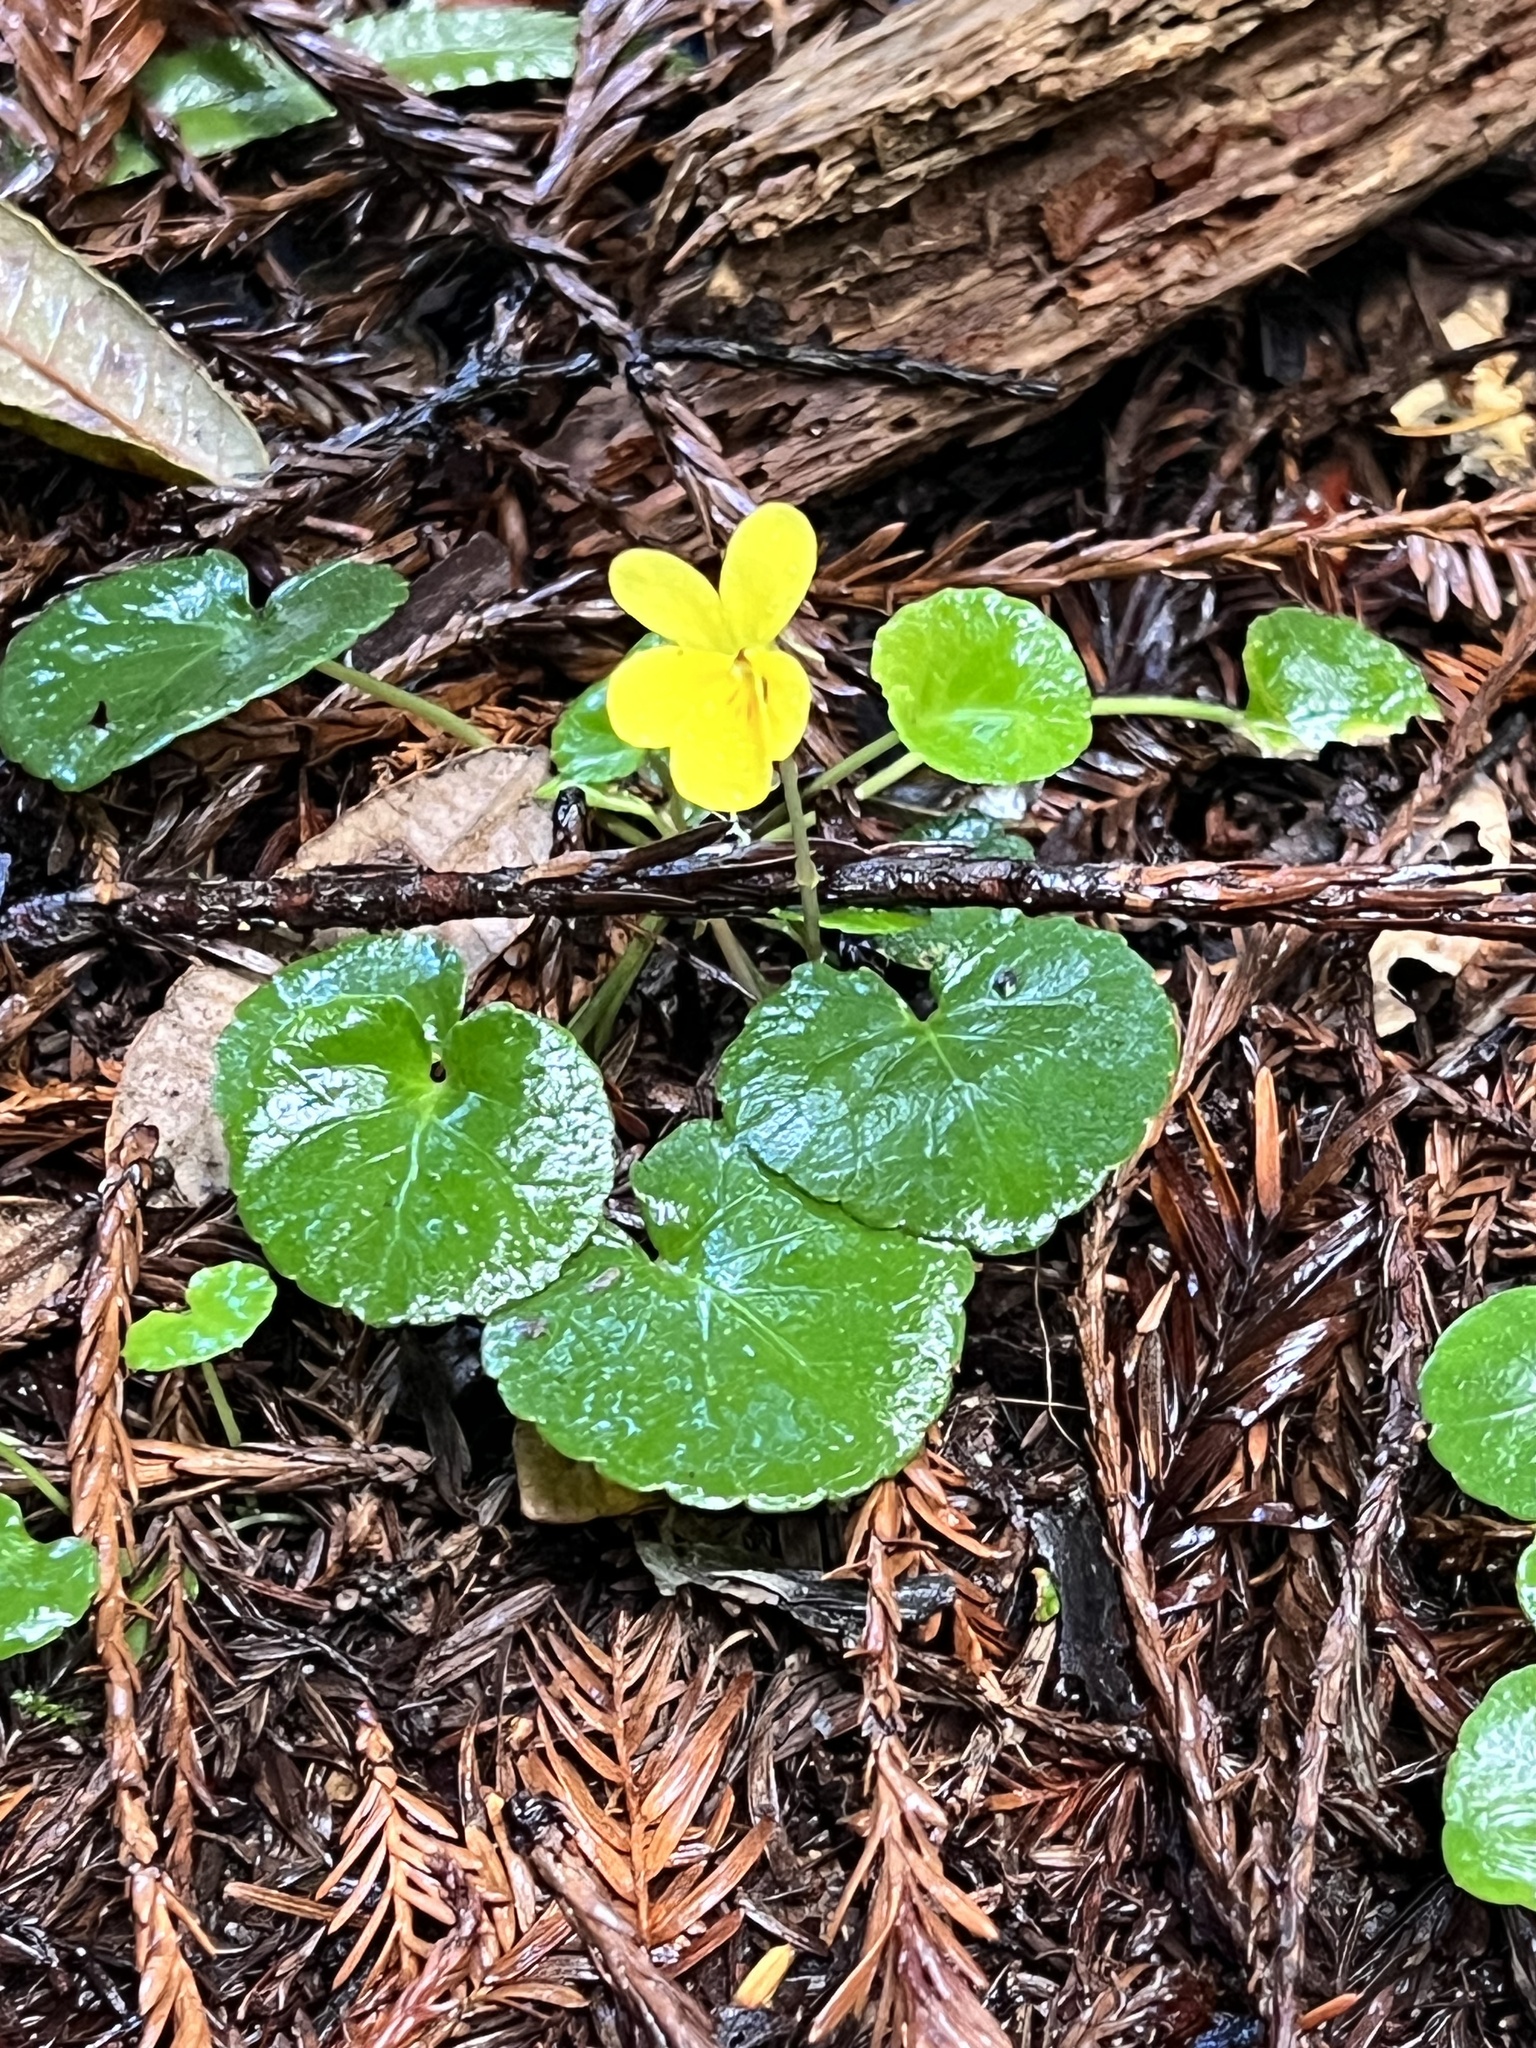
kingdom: Plantae
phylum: Tracheophyta
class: Magnoliopsida
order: Malpighiales
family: Violaceae
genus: Viola
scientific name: Viola sempervirens
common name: Evergreen violet
